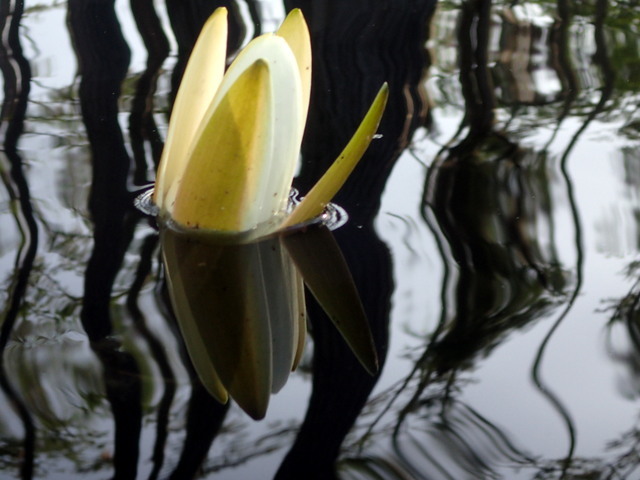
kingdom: Plantae
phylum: Tracheophyta
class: Magnoliopsida
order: Nymphaeales
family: Nymphaeaceae
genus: Nymphaea
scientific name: Nymphaea odorata
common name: Fragrant water-lily
